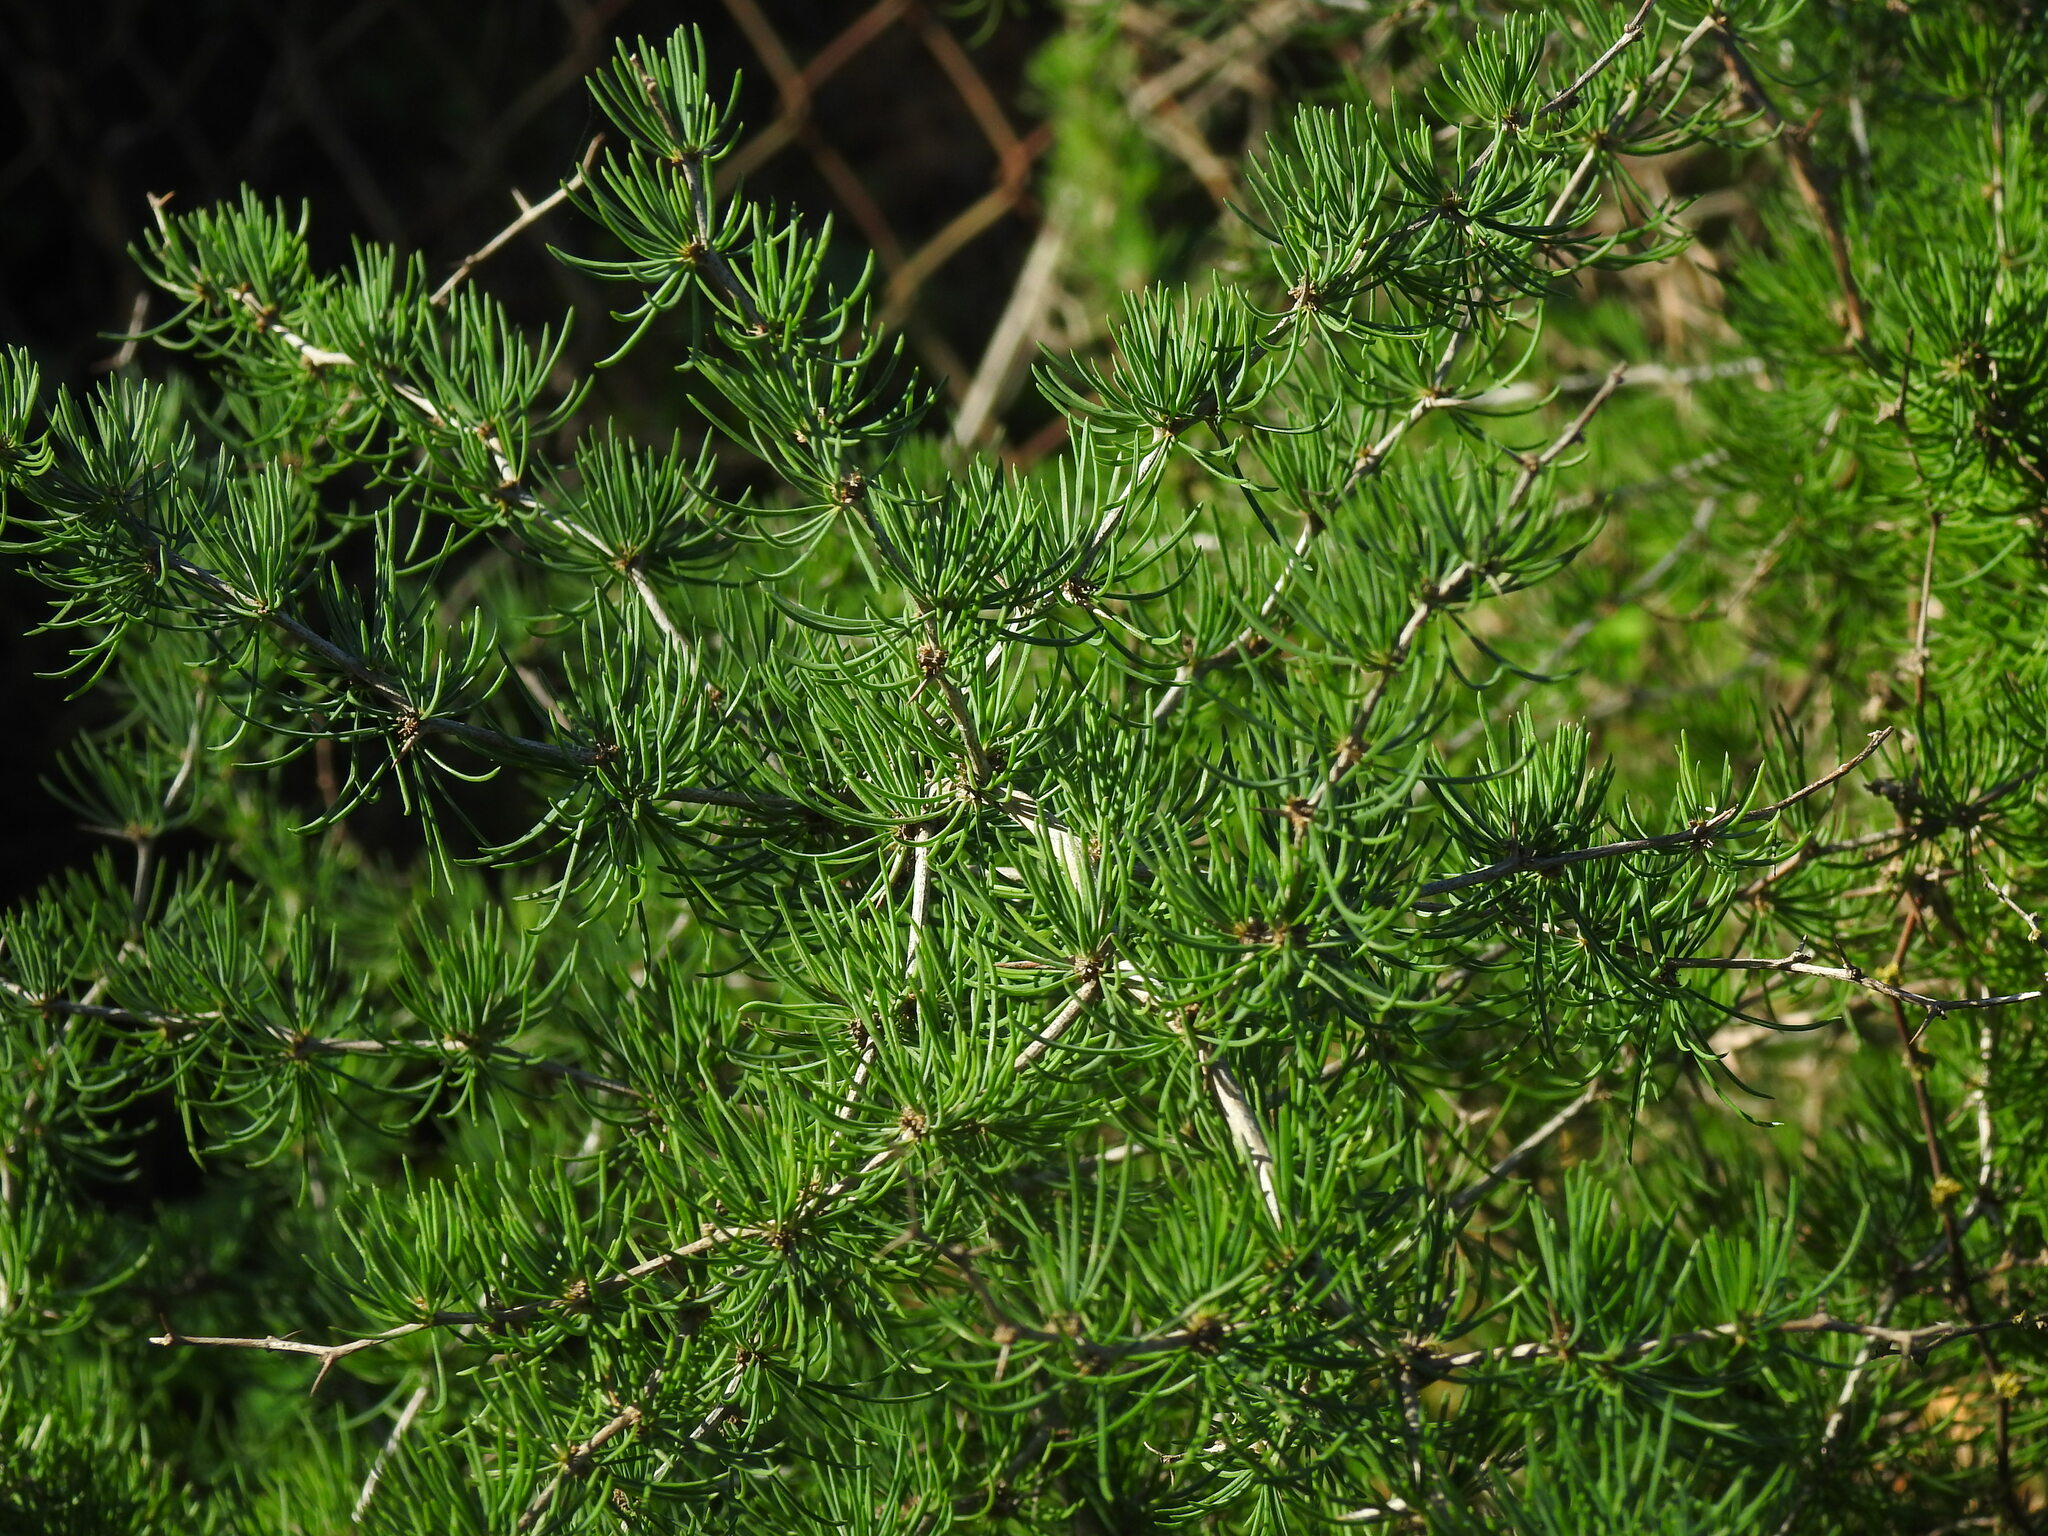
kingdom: Plantae
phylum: Tracheophyta
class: Liliopsida
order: Asparagales
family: Asparagaceae
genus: Asparagus
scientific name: Asparagus albus
